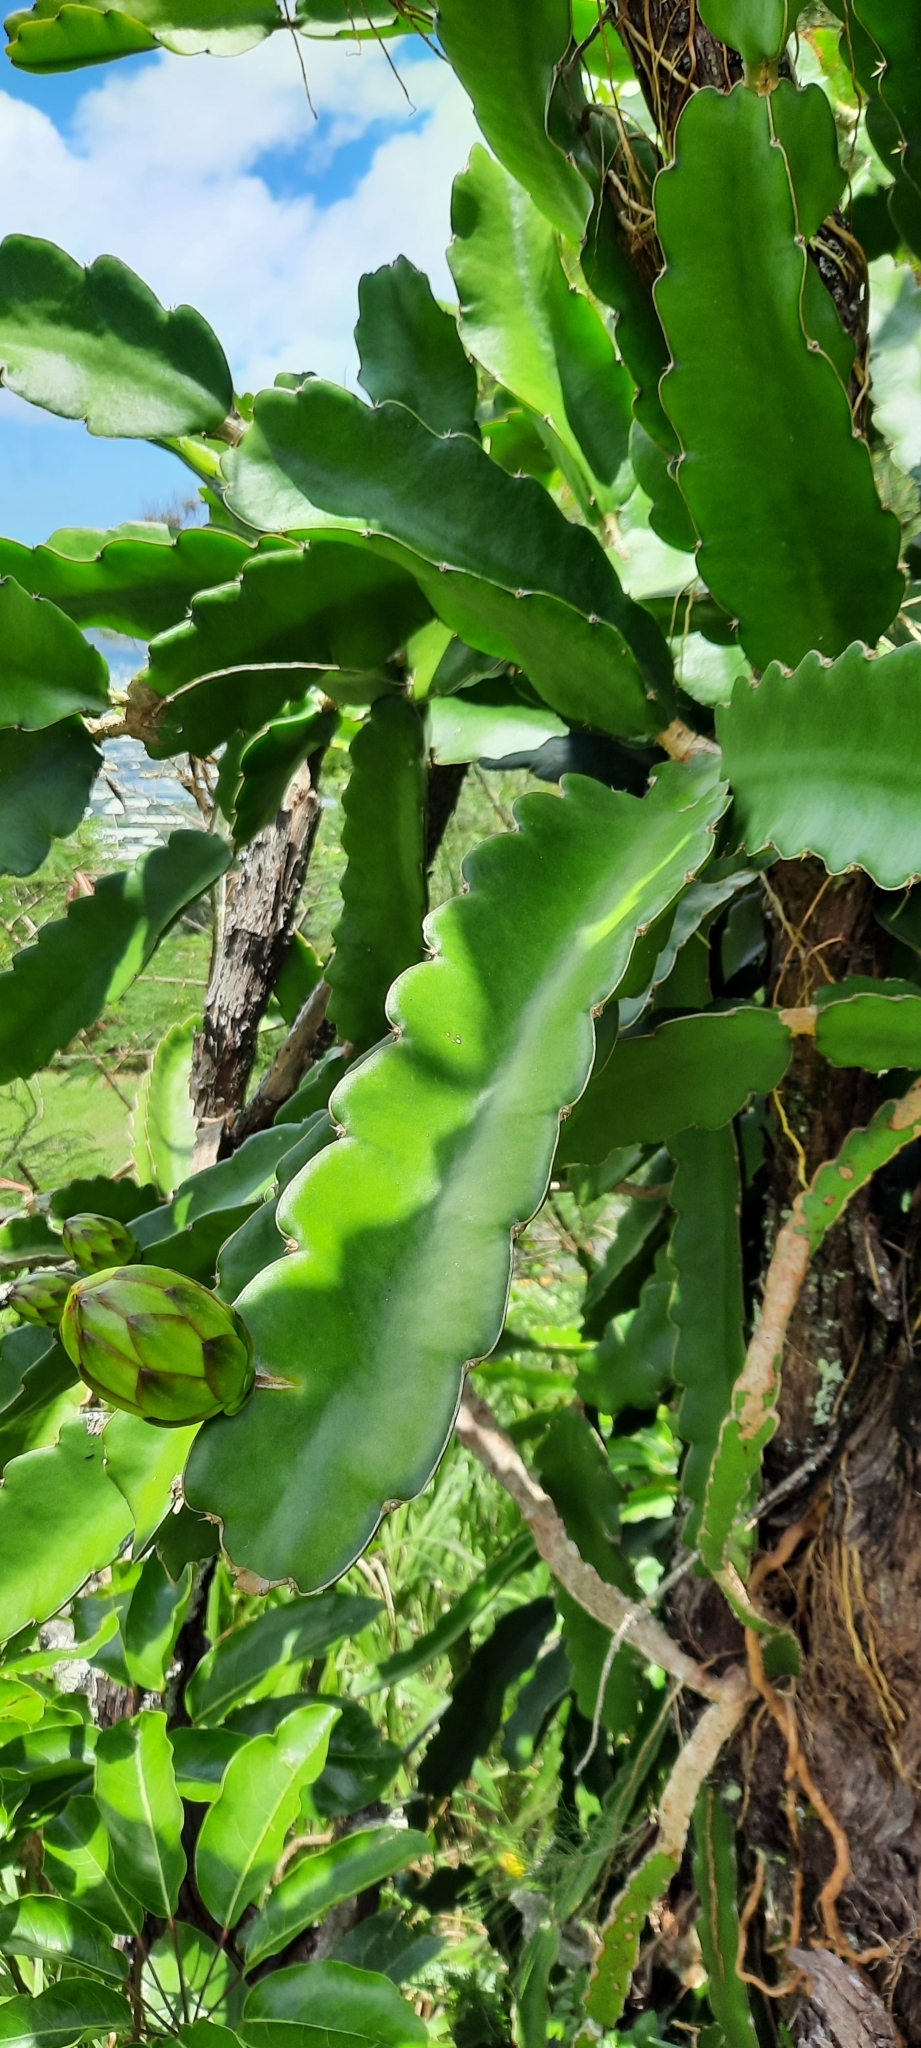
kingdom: Plantae
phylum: Tracheophyta
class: Magnoliopsida
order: Caryophyllales
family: Cactaceae
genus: Selenicereus
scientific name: Selenicereus undatus
